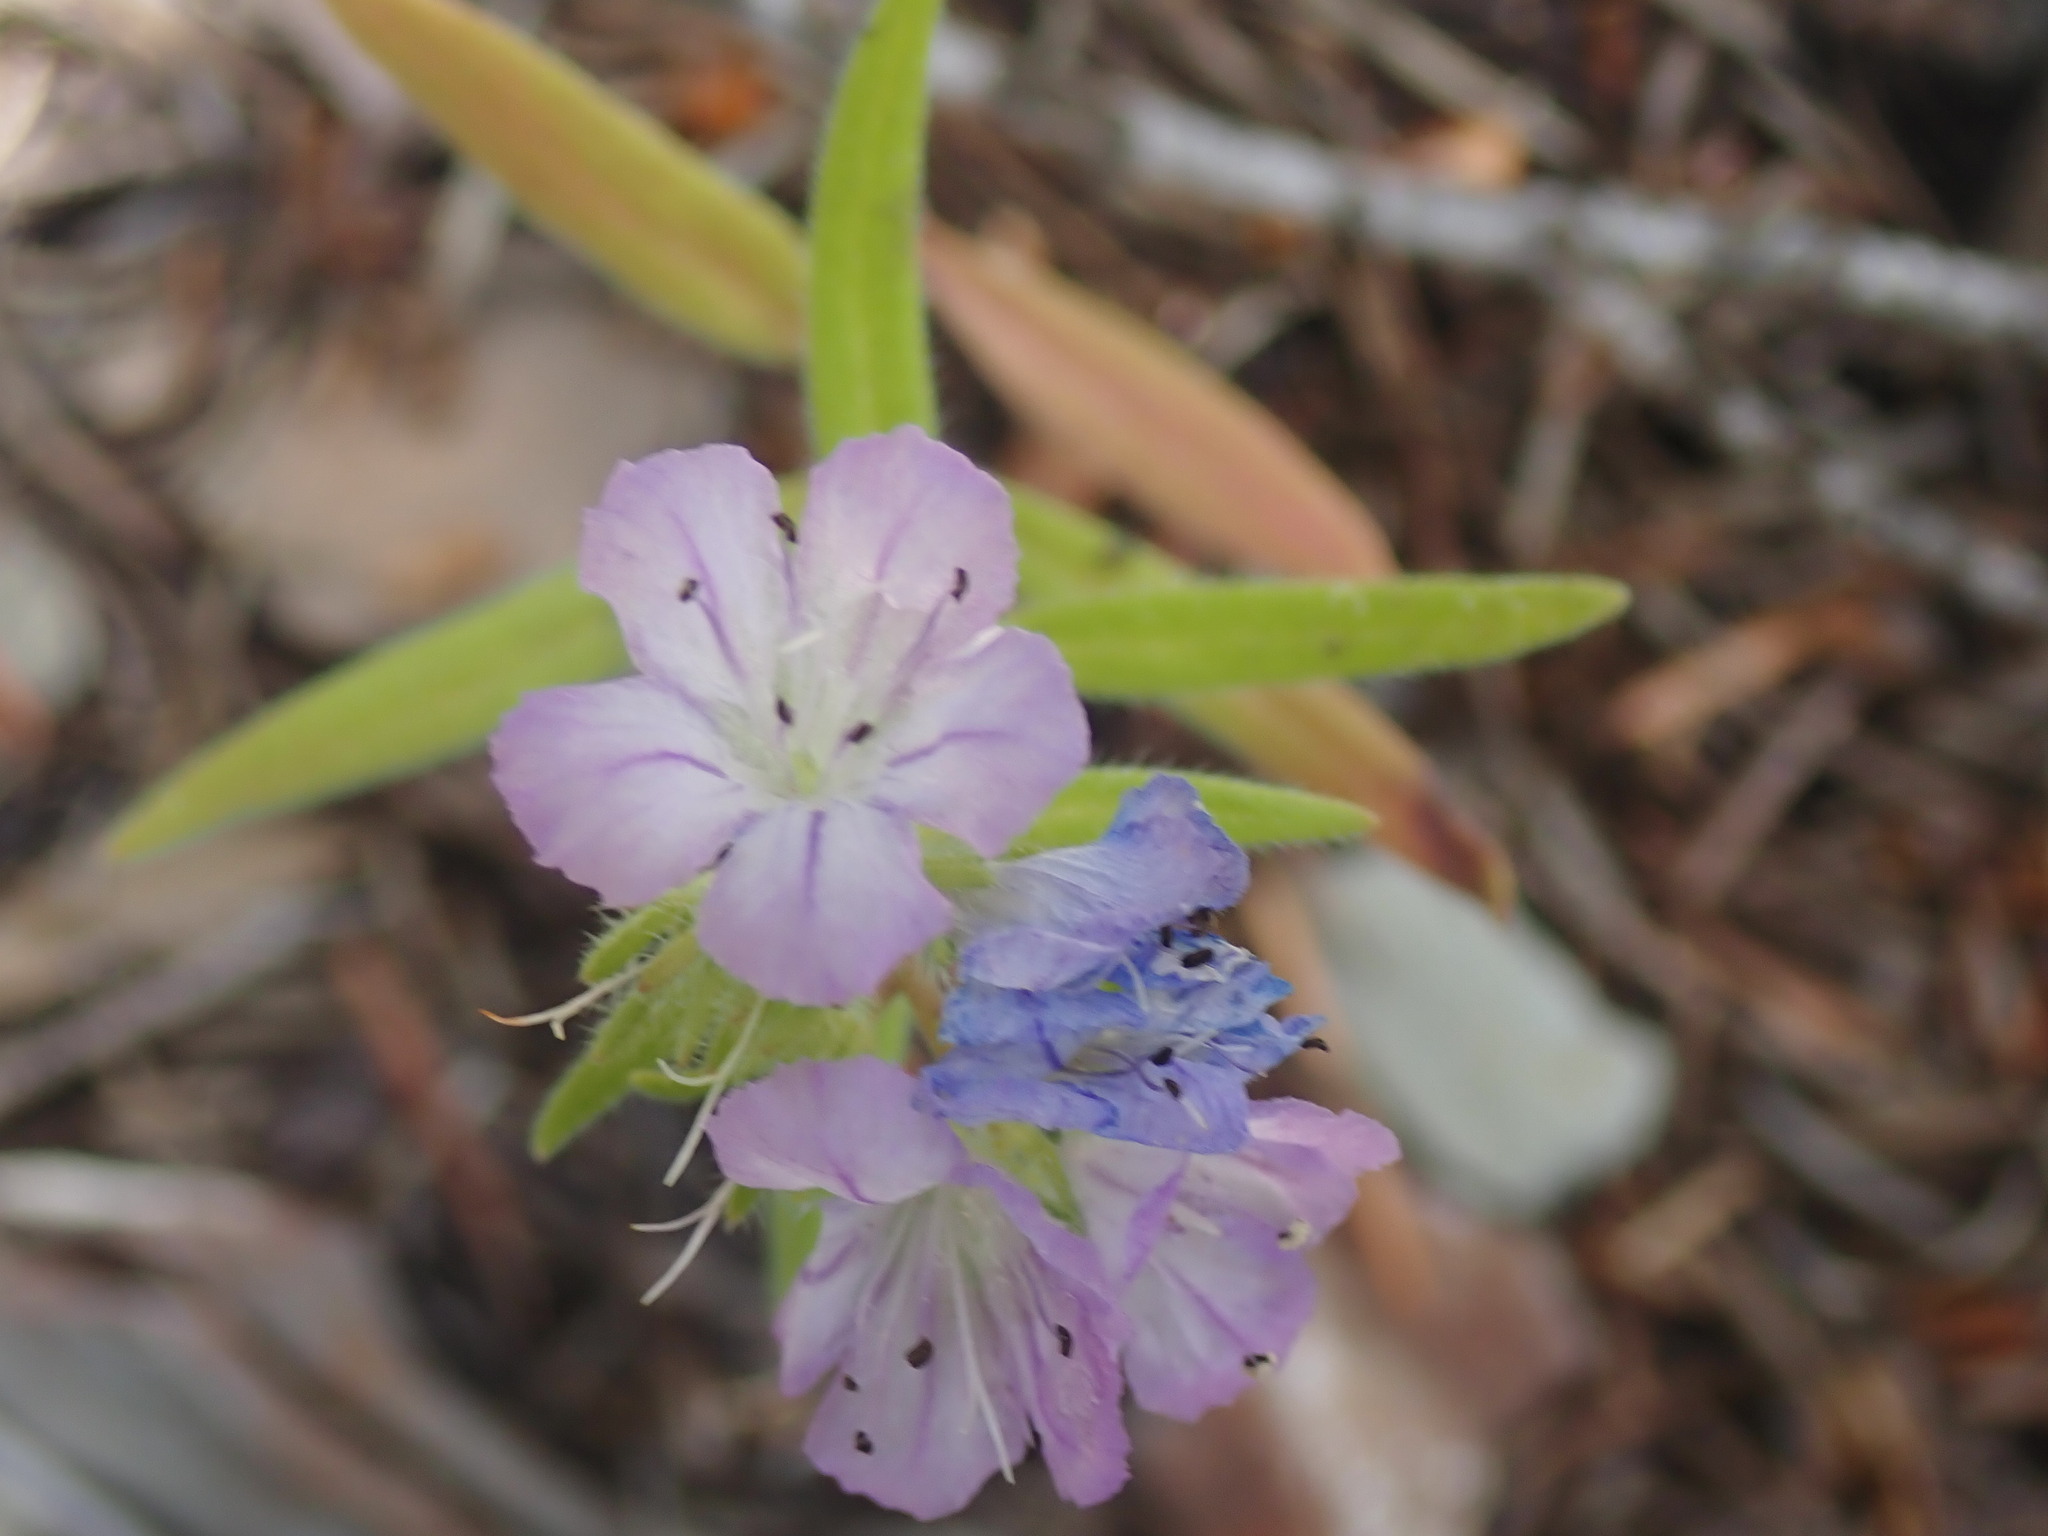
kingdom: Plantae
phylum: Tracheophyta
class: Magnoliopsida
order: Boraginales
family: Hydrophyllaceae
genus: Phacelia
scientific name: Phacelia linearis
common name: Linear-leaved phacelia
